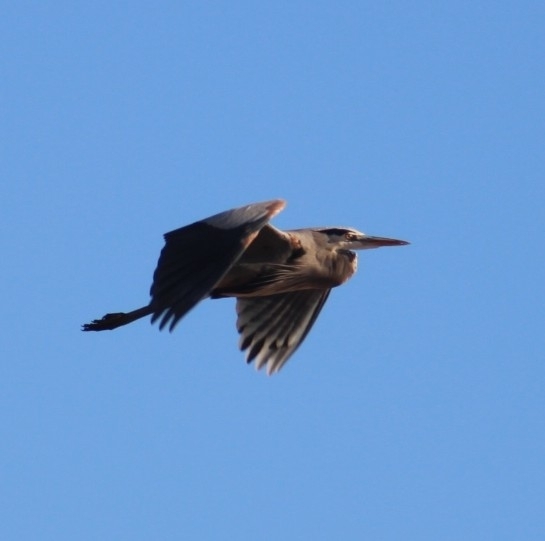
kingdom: Animalia
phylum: Chordata
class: Aves
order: Pelecaniformes
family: Ardeidae
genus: Ardea
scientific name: Ardea herodias
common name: Great blue heron
